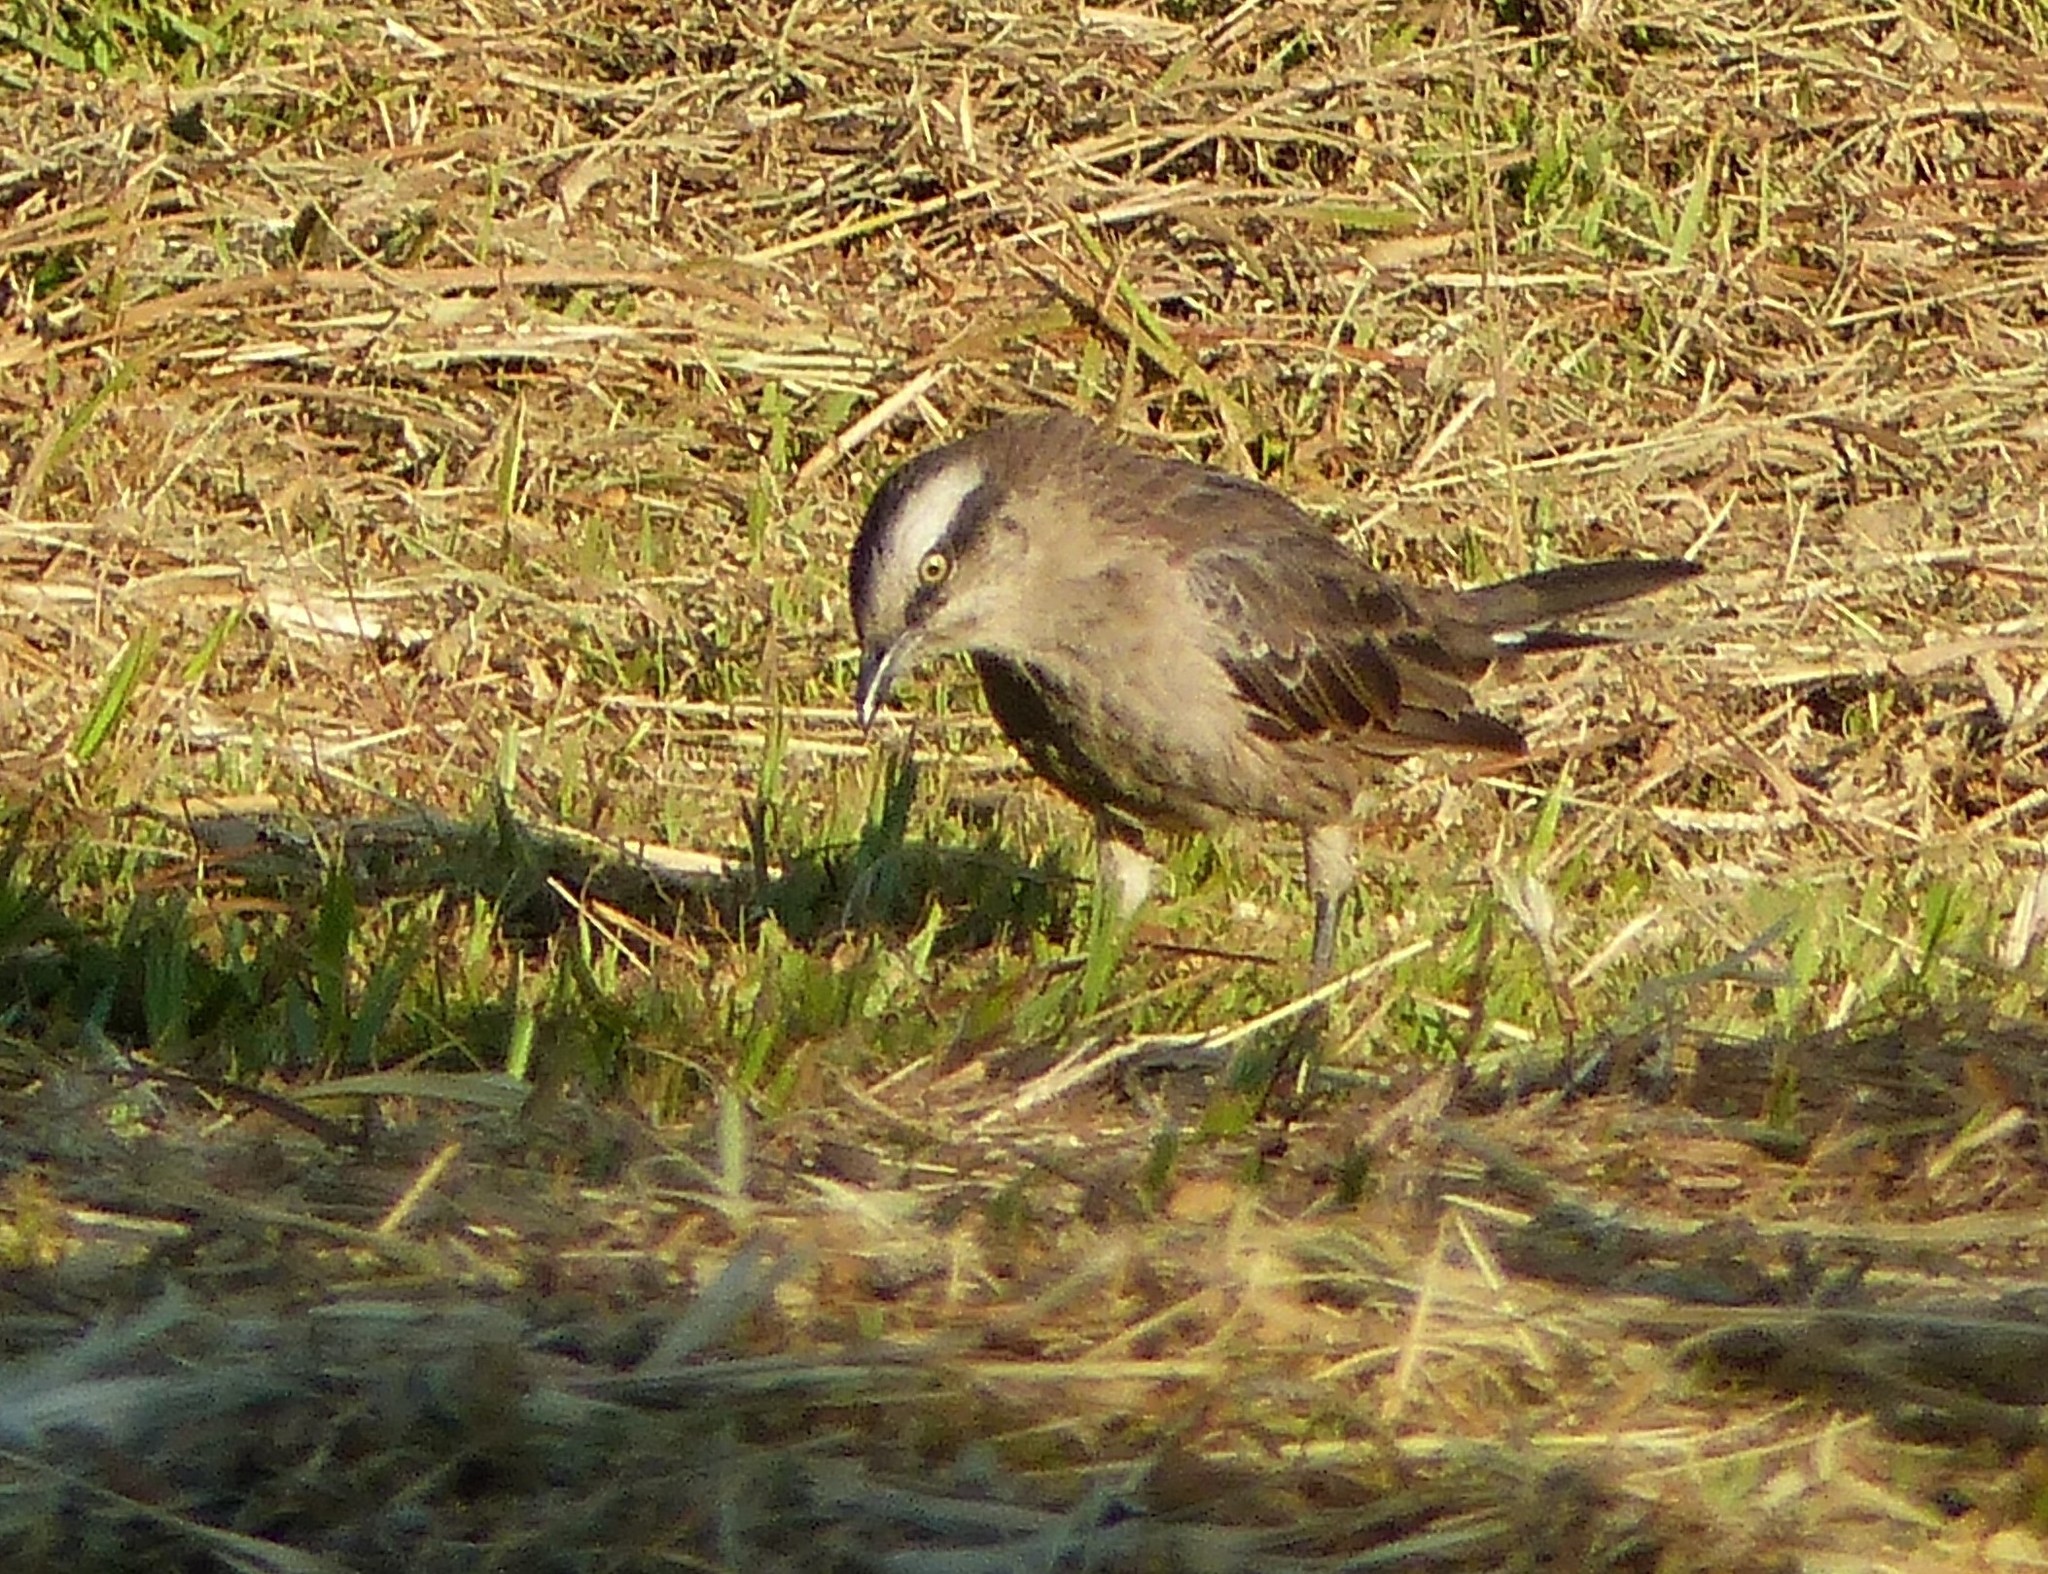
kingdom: Animalia
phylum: Chordata
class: Aves
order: Passeriformes
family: Mimidae
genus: Mimus
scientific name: Mimus saturninus
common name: Chalk-browed mockingbird
